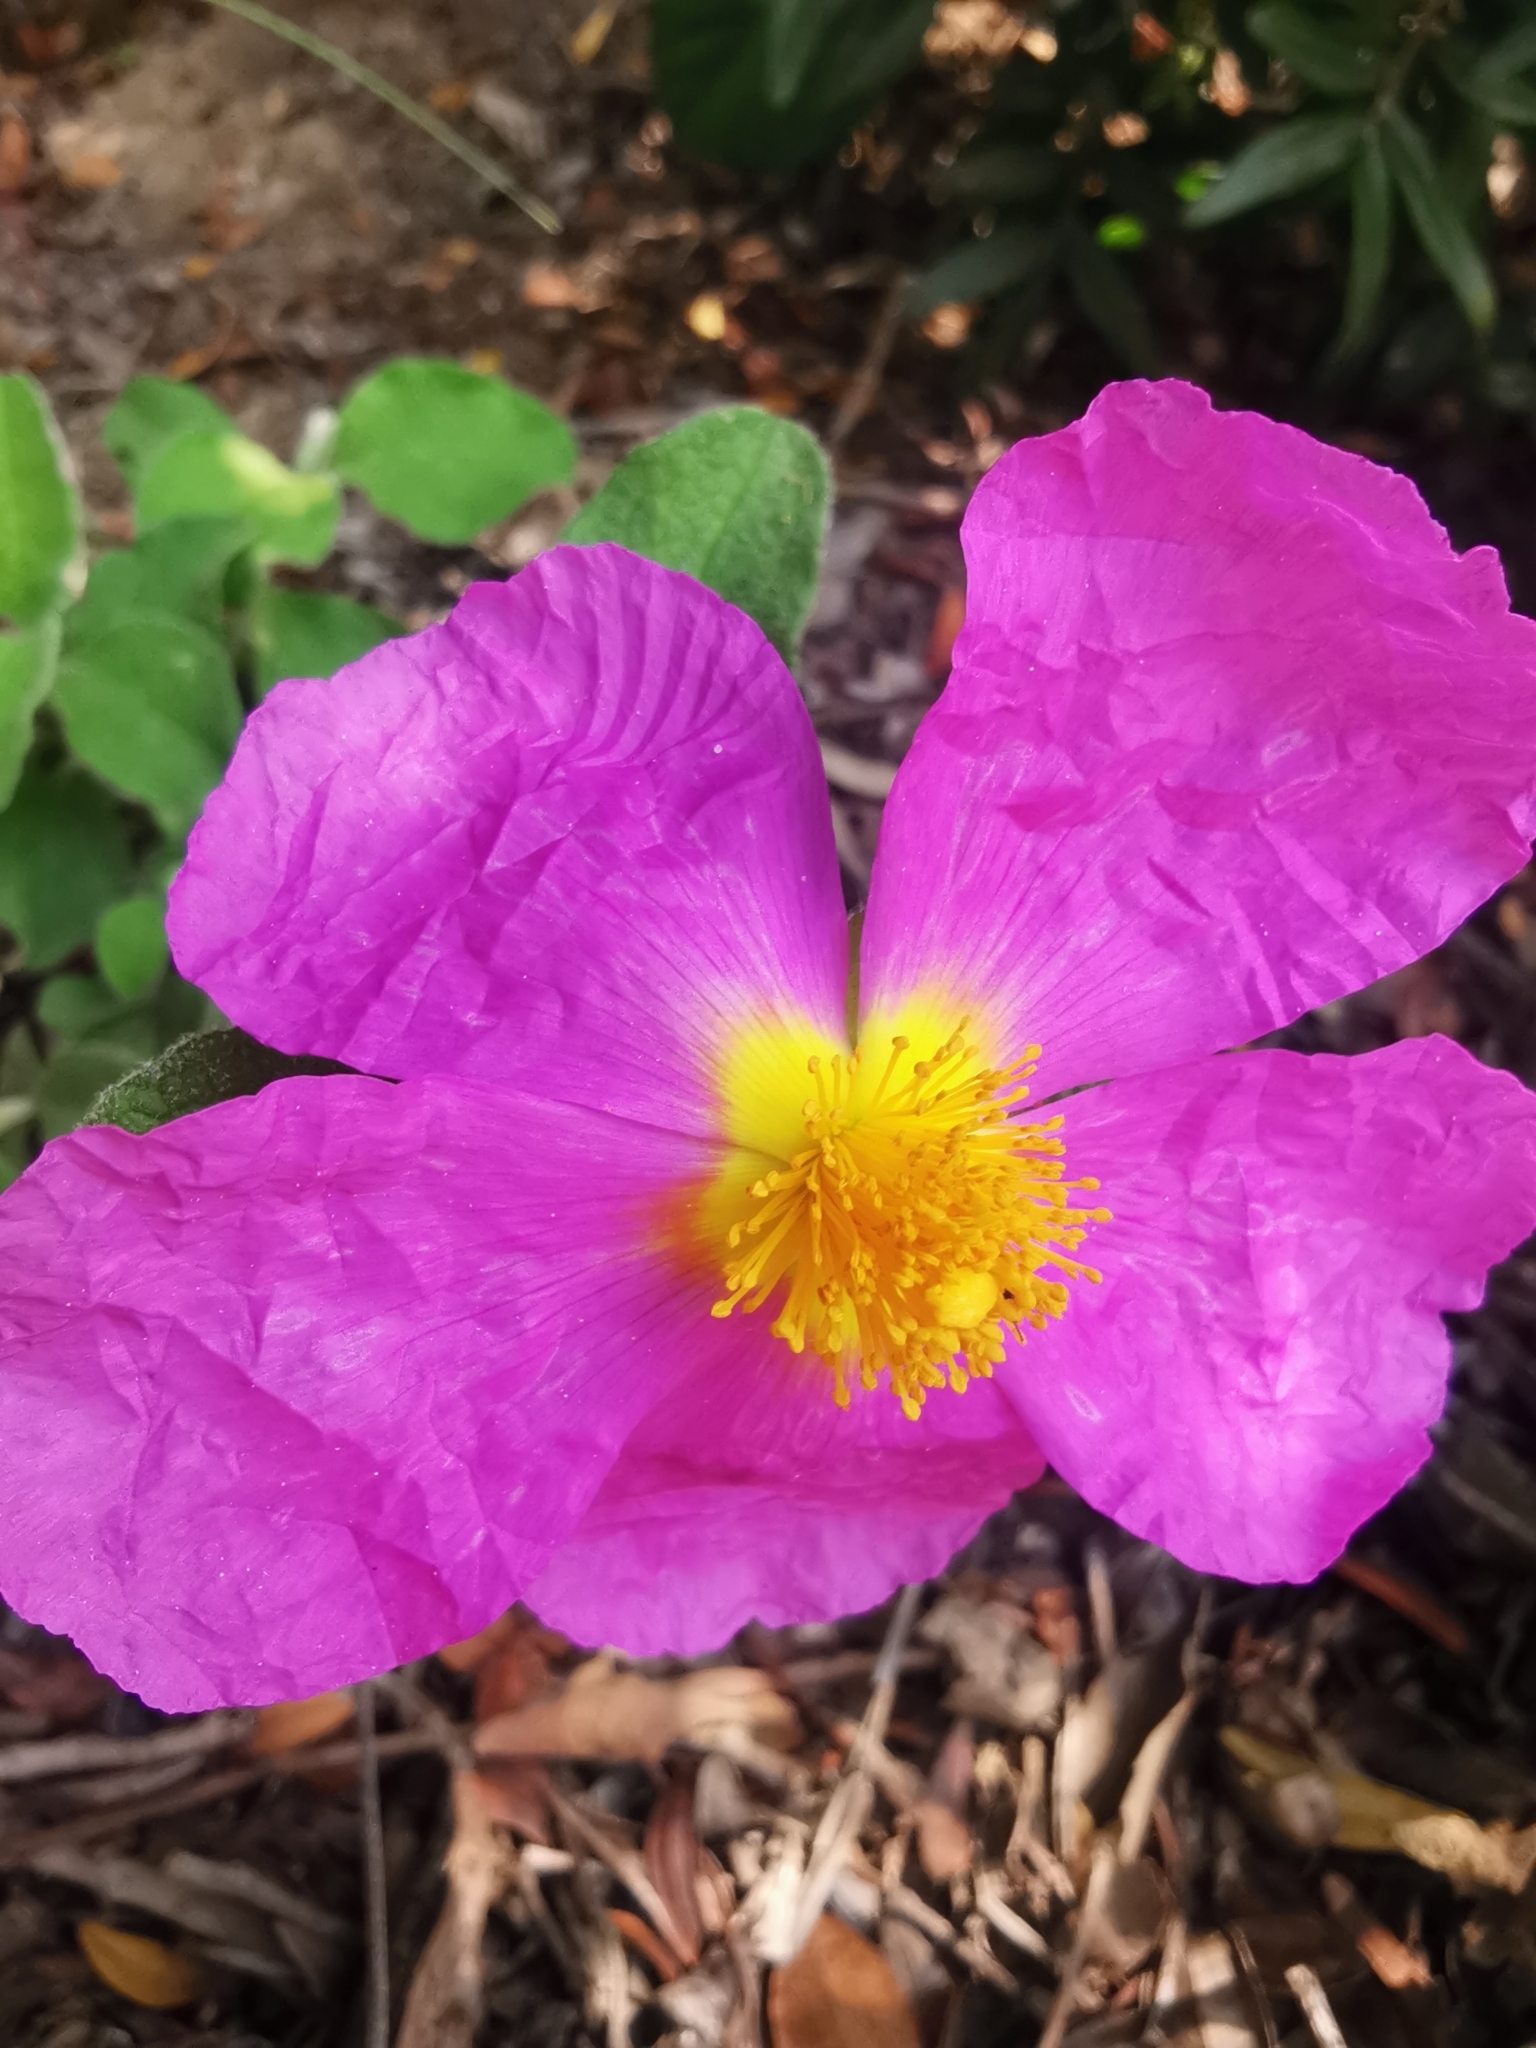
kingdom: Plantae
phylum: Tracheophyta
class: Magnoliopsida
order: Malvales
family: Cistaceae
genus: Cistus
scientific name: Cistus creticus
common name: Cretan rockrose
